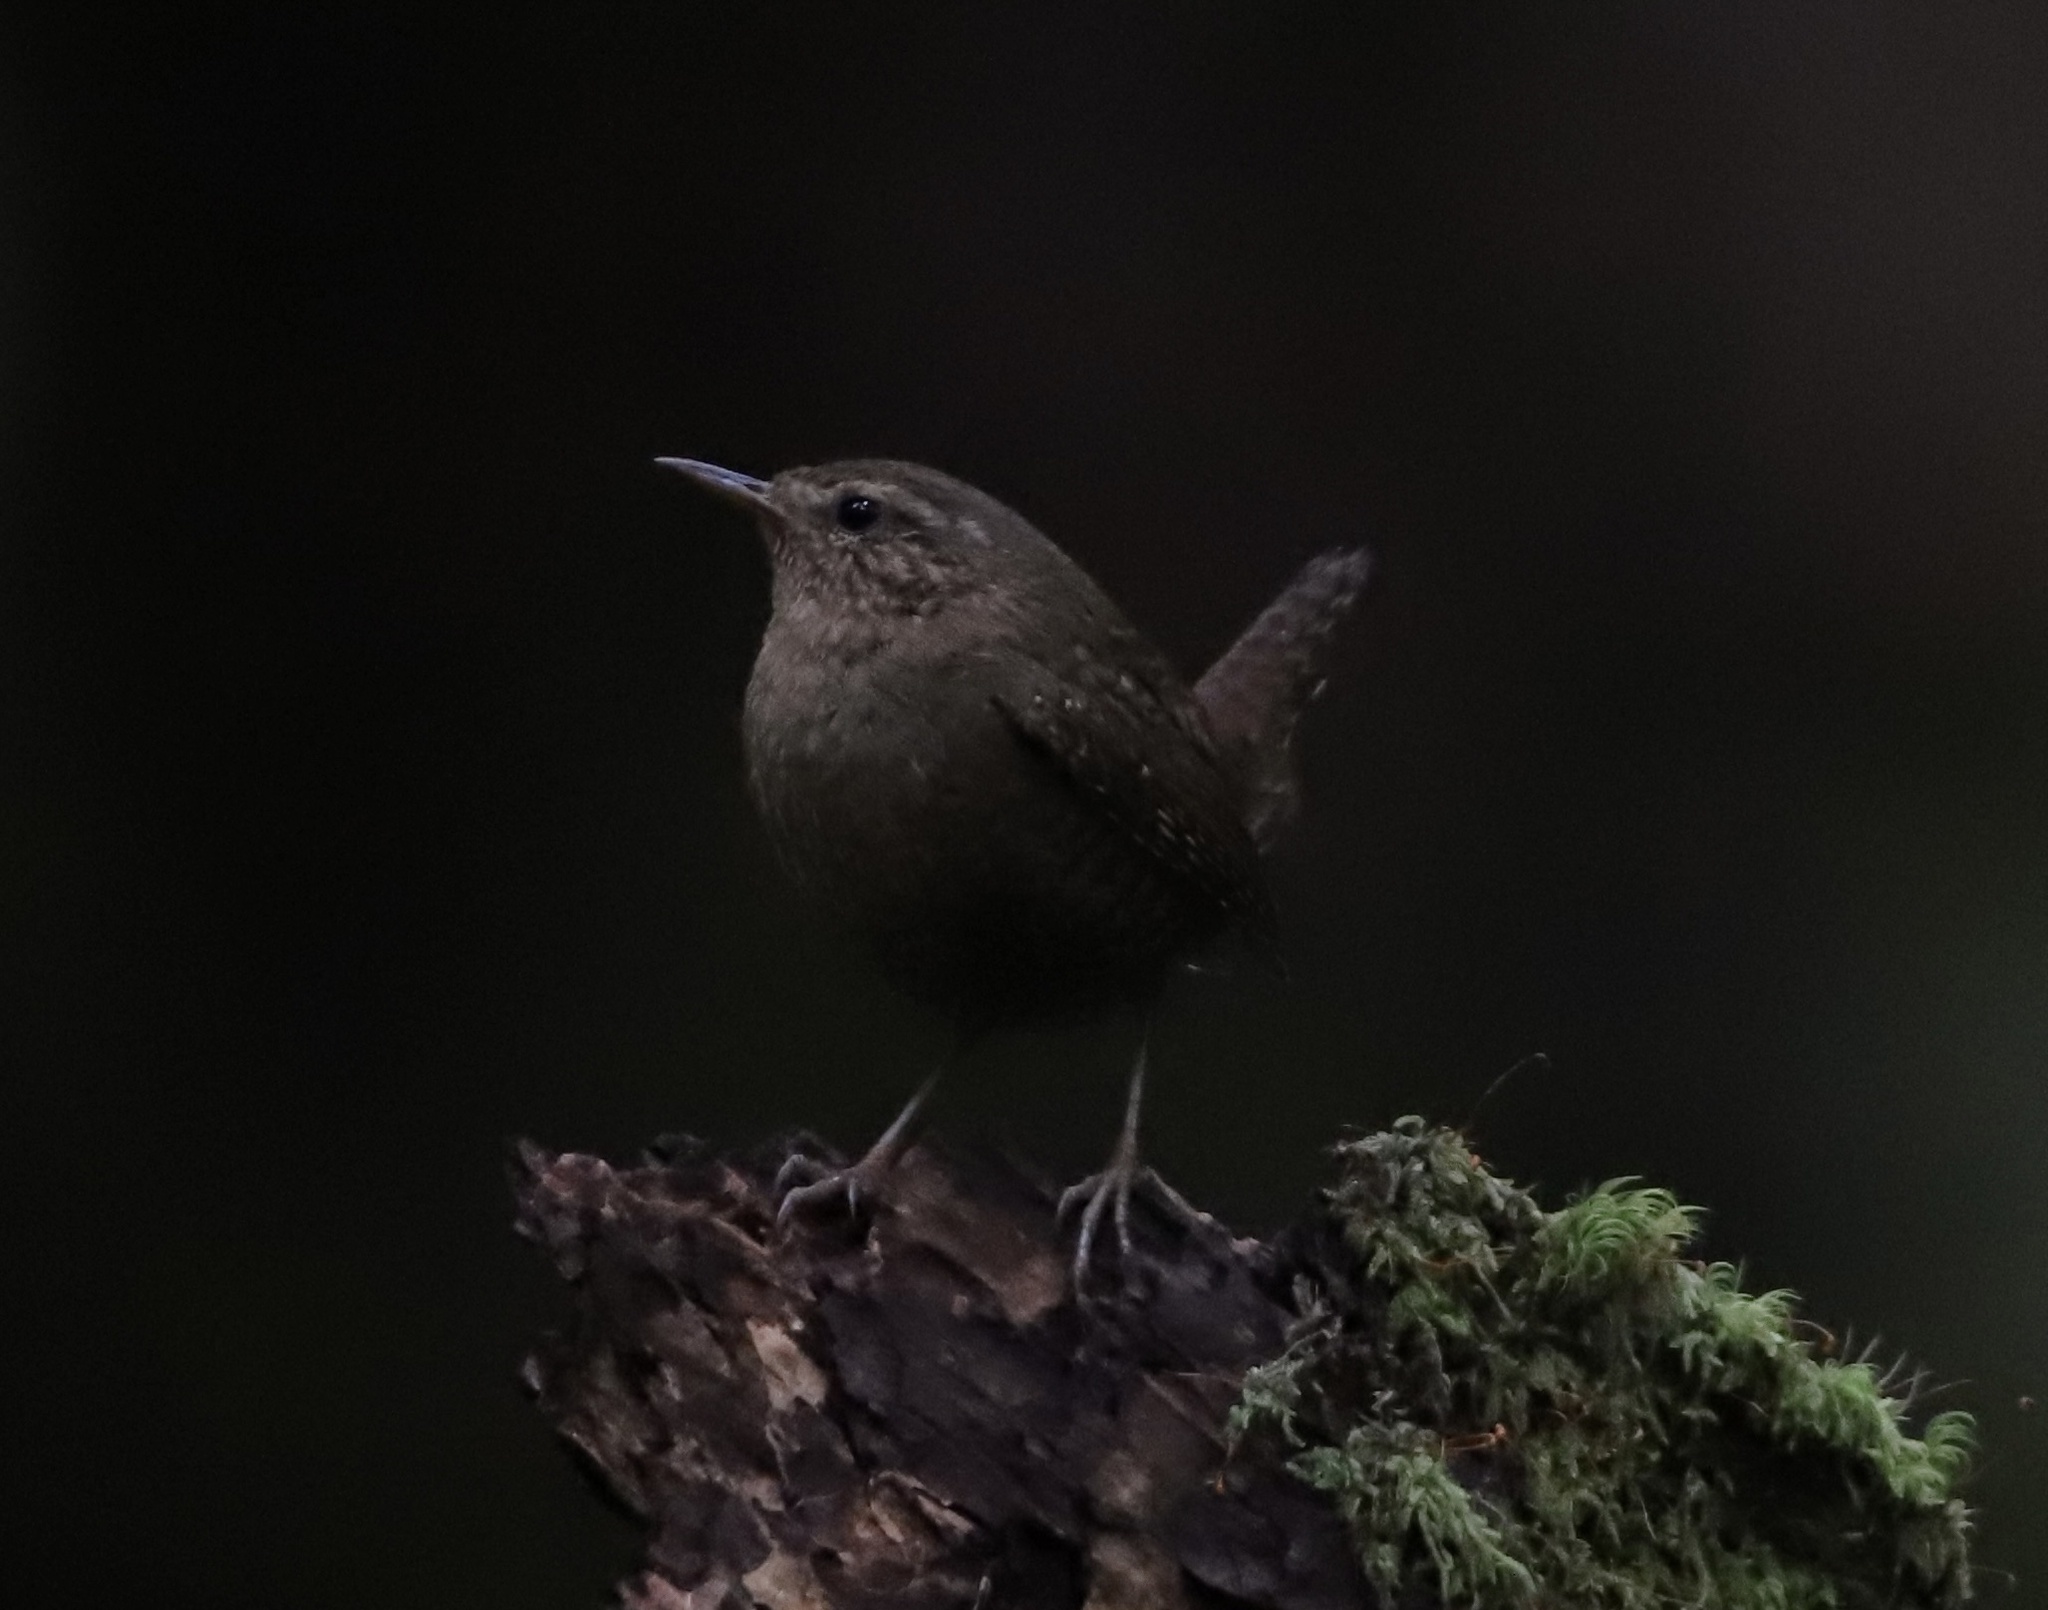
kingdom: Animalia
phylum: Chordata
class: Aves
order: Passeriformes
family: Troglodytidae
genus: Troglodytes
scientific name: Troglodytes pacificus
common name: Pacific wren
